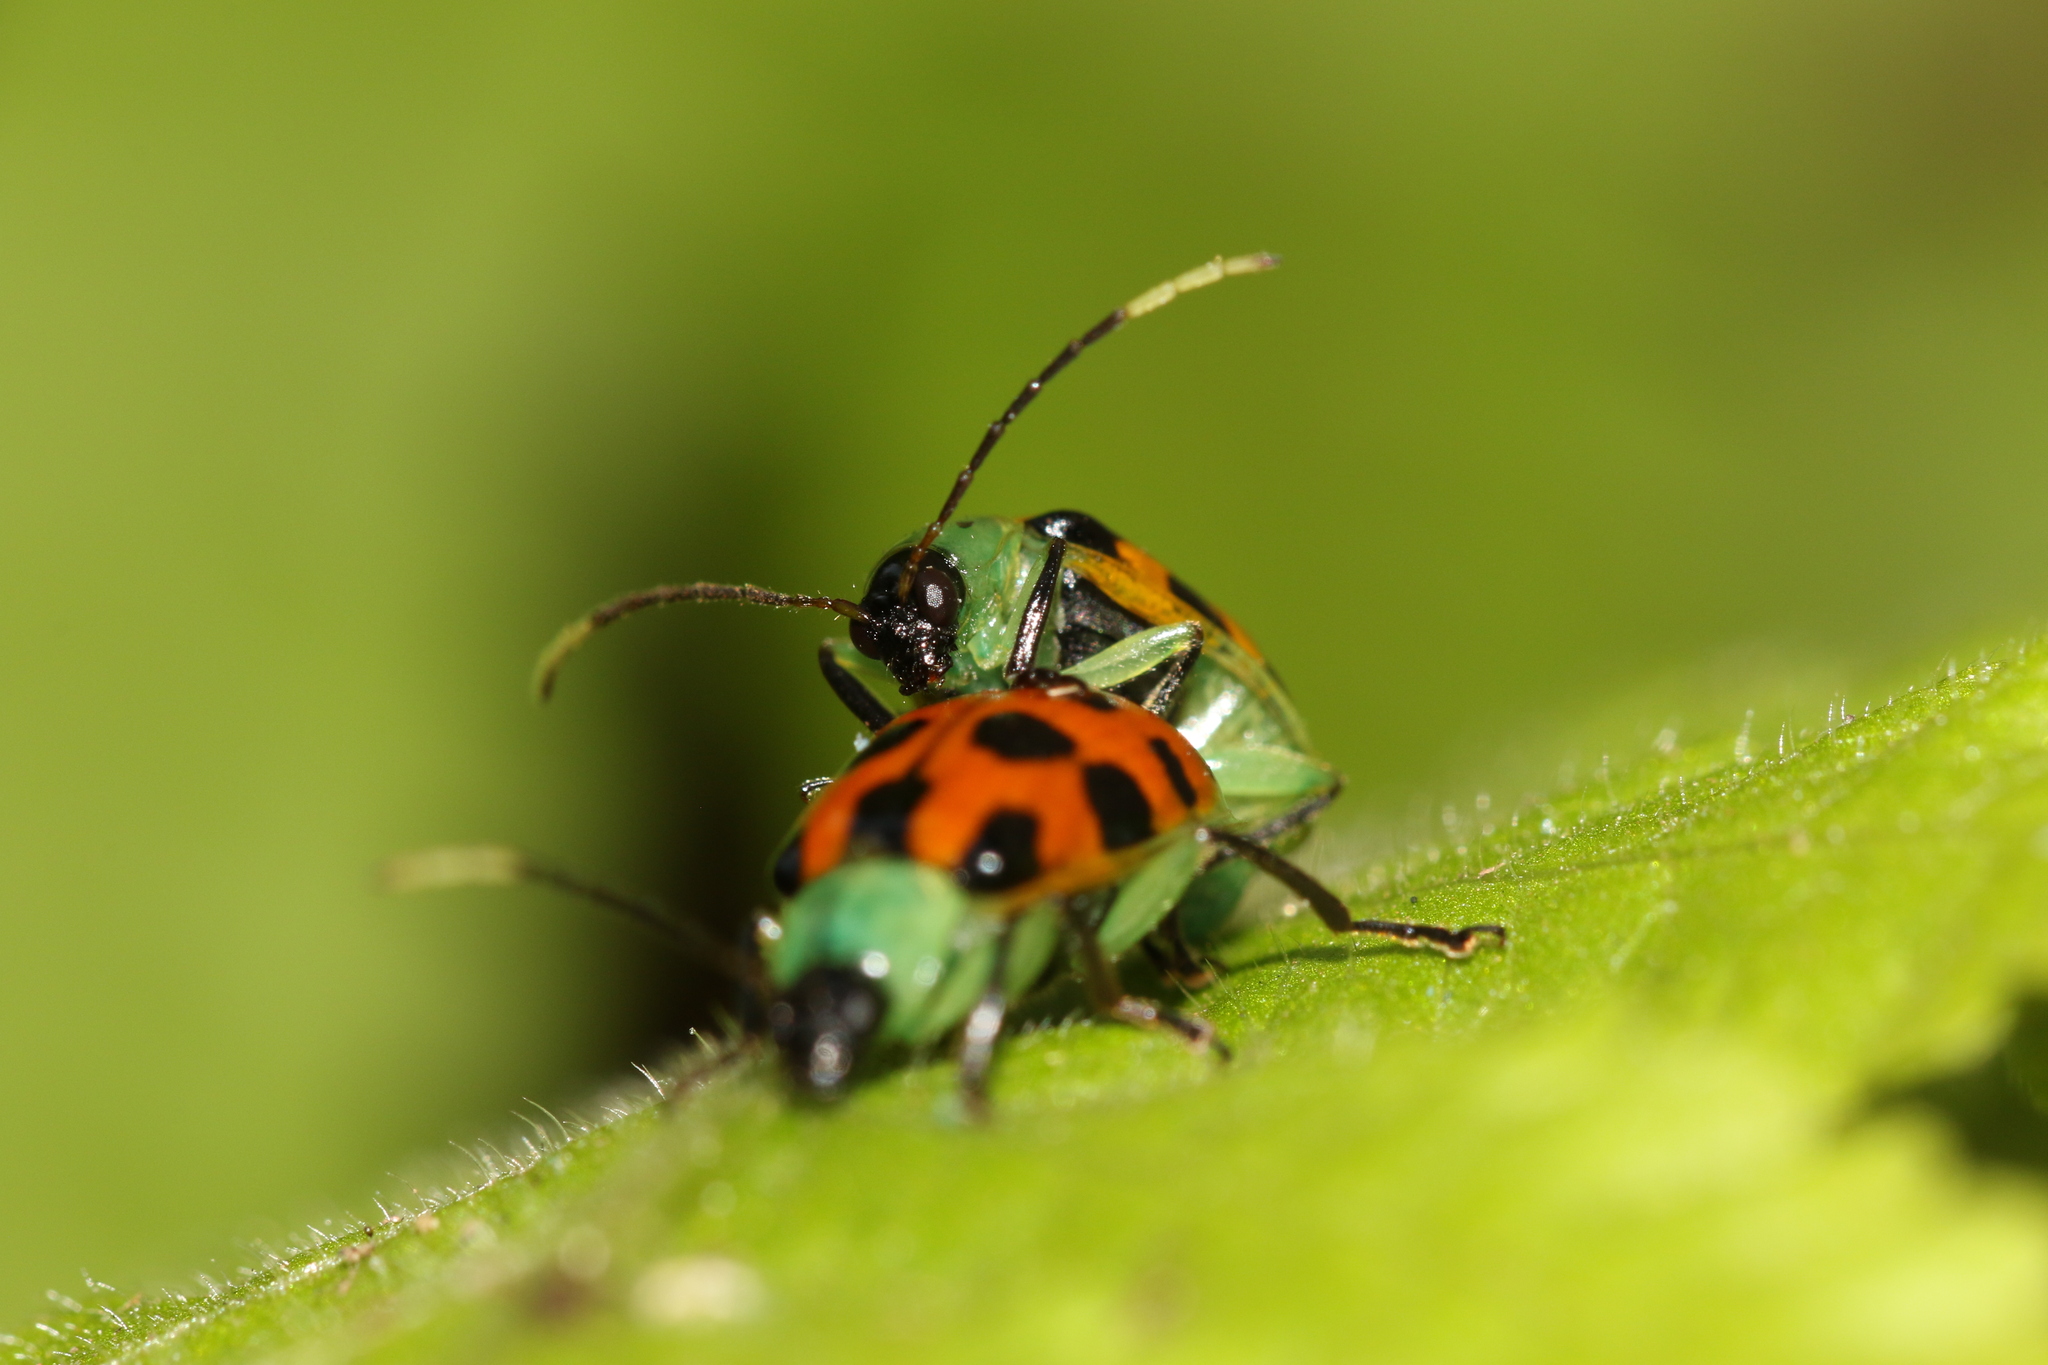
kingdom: Animalia
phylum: Arthropoda
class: Insecta
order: Coleoptera
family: Chrysomelidae
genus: Diabrotica
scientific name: Diabrotica limitata
